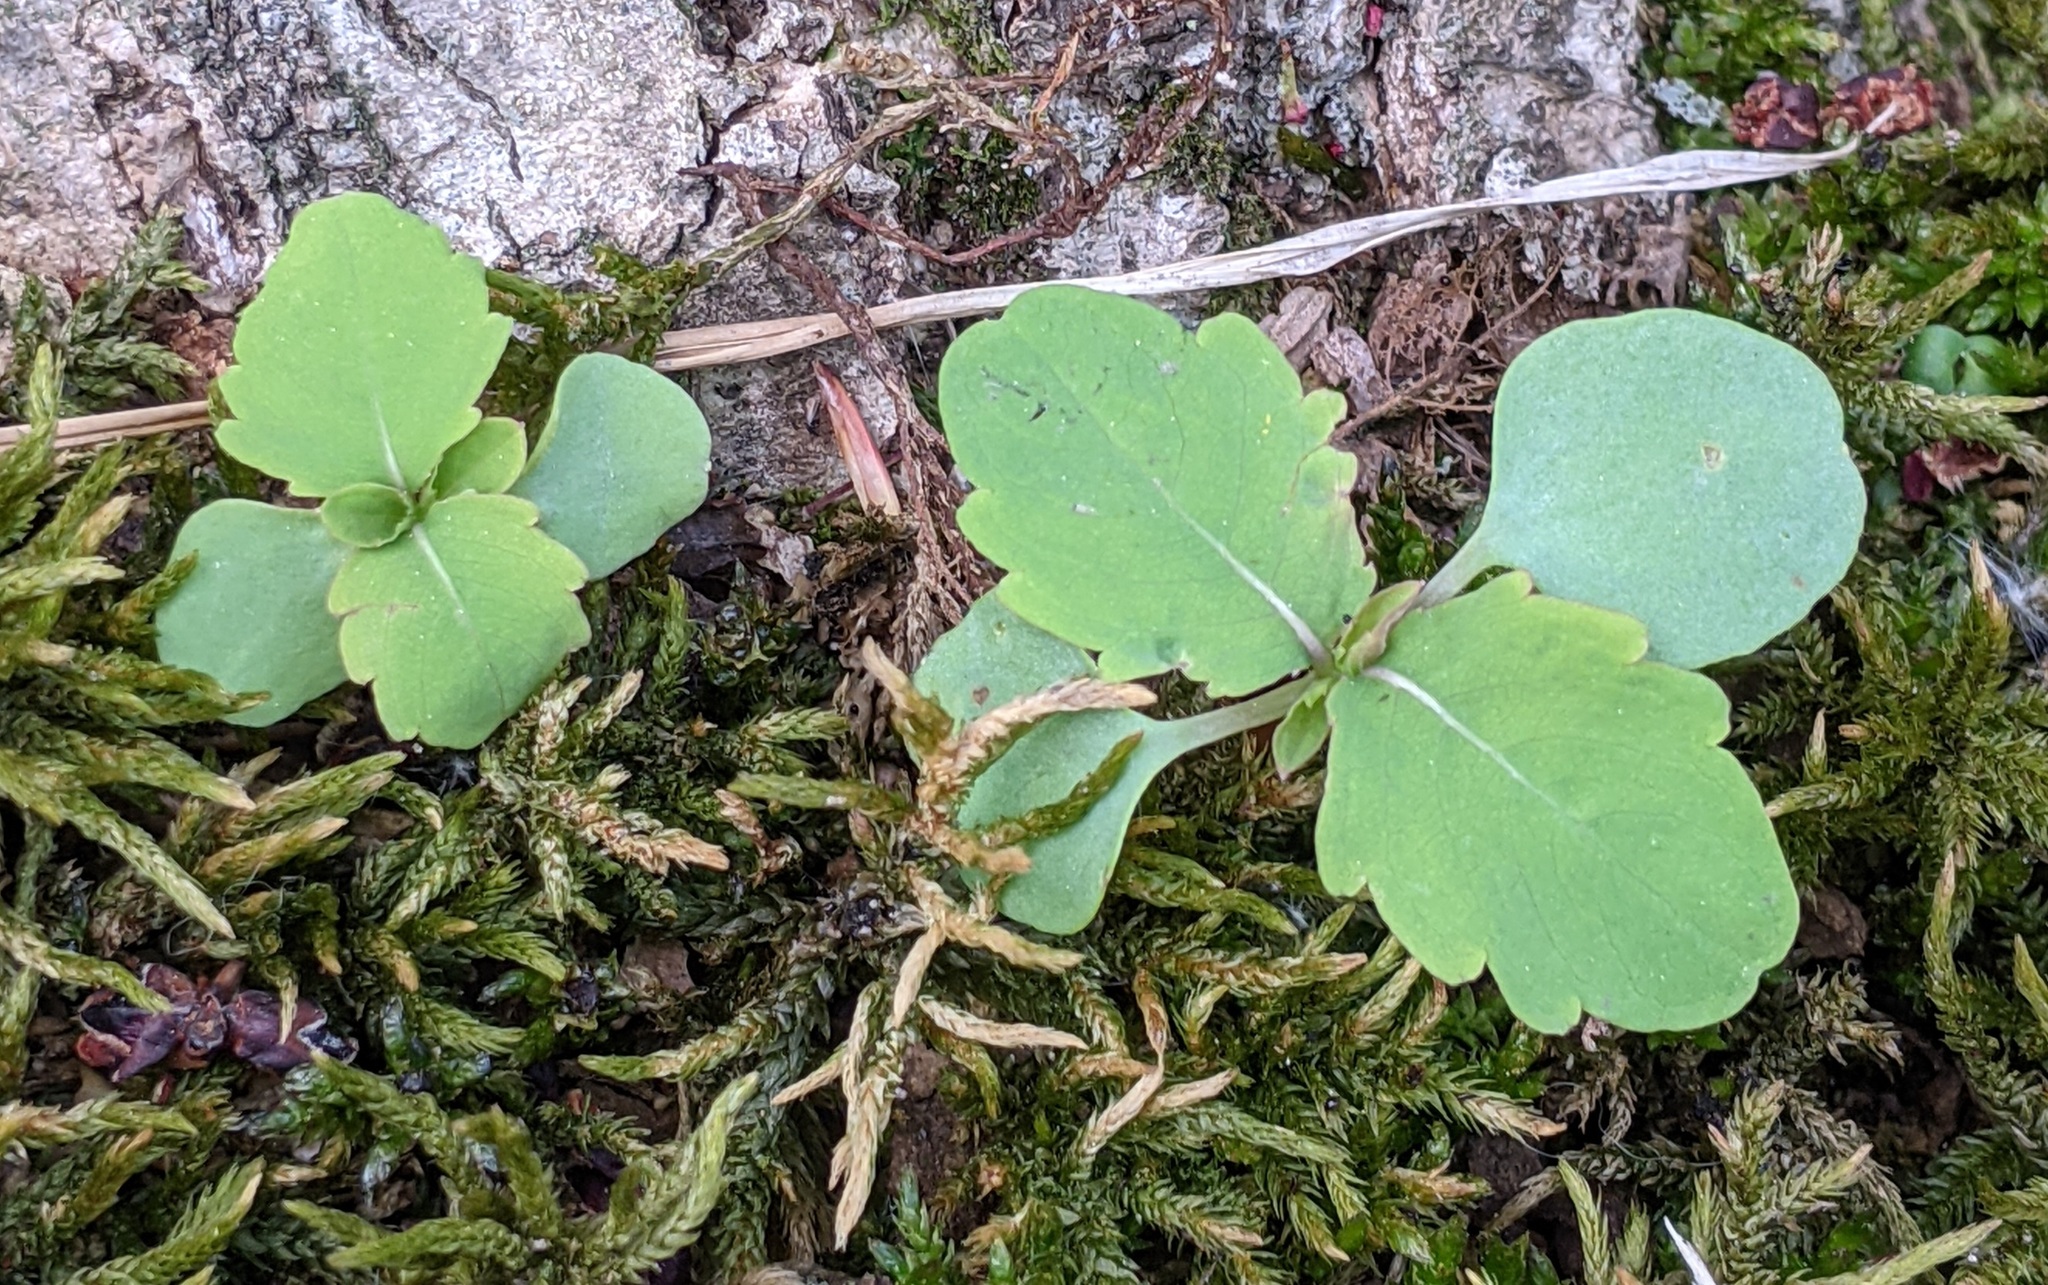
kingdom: Plantae
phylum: Tracheophyta
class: Magnoliopsida
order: Ericales
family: Balsaminaceae
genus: Impatiens
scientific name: Impatiens capensis
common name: Orange balsam
